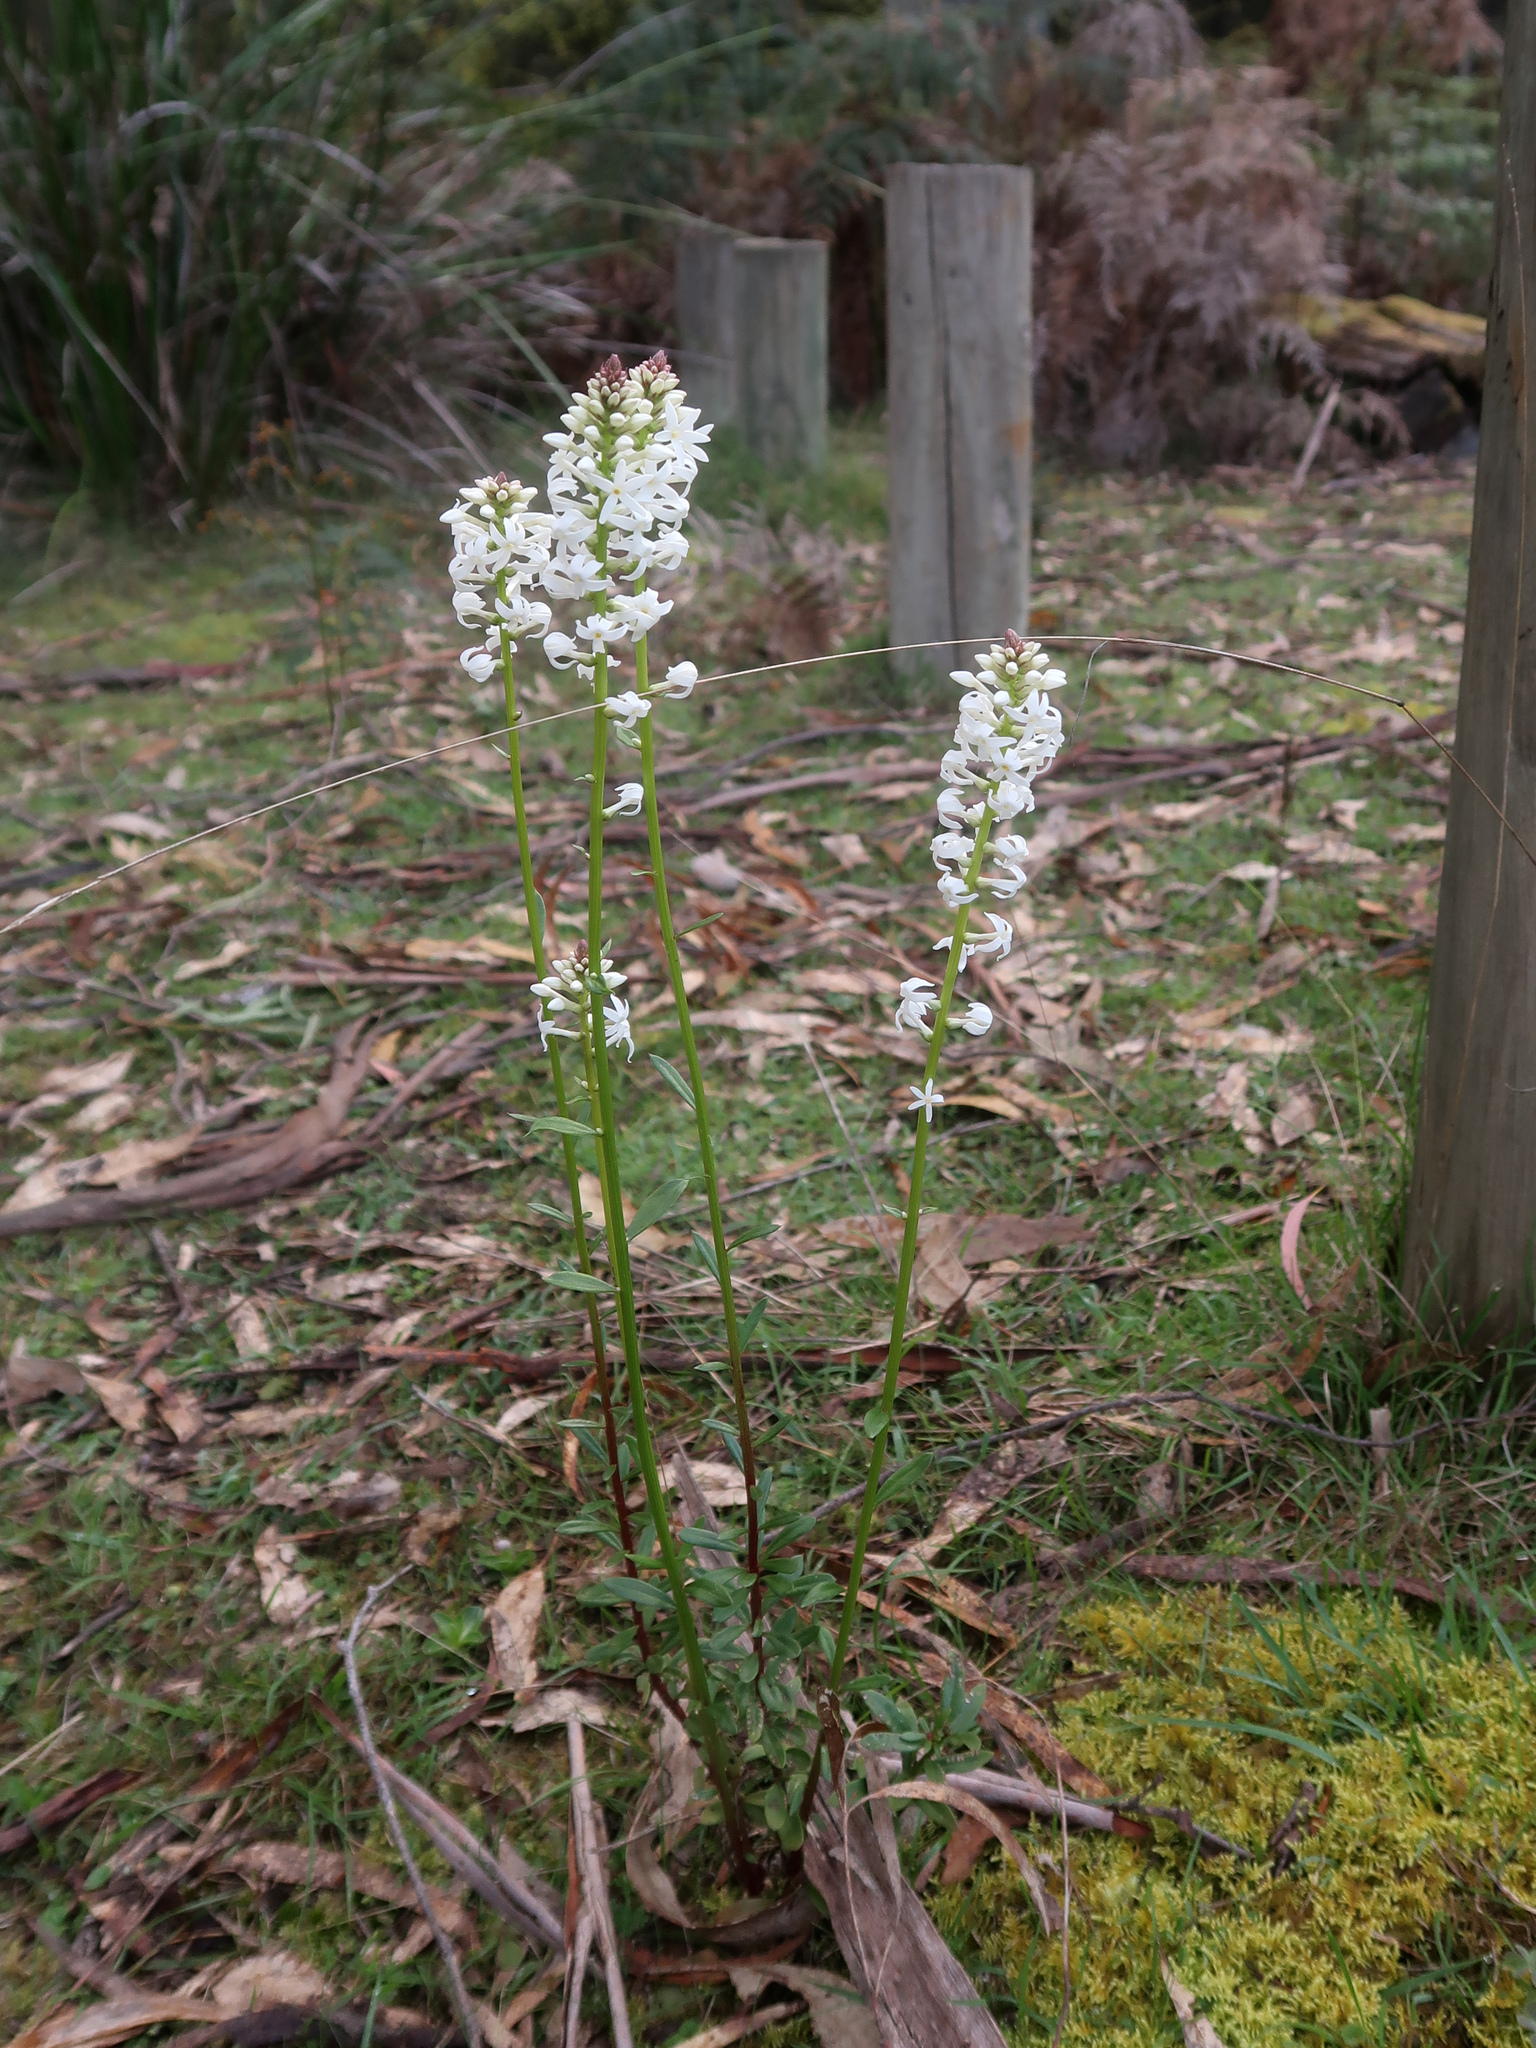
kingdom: Plantae
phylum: Tracheophyta
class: Magnoliopsida
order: Celastrales
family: Celastraceae
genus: Stackhousia
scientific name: Stackhousia monogyna
